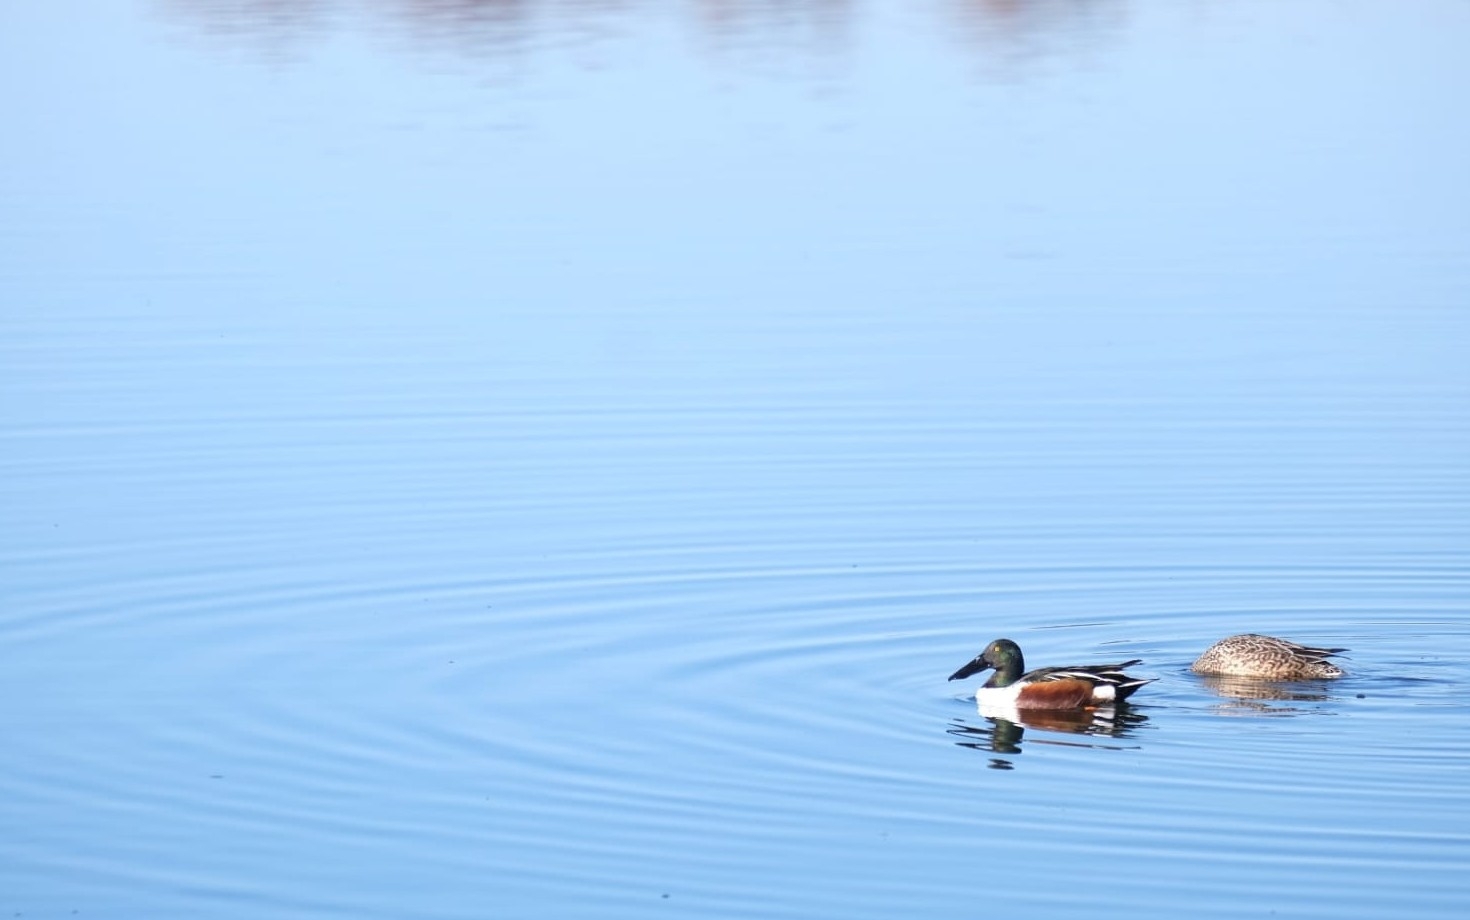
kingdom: Animalia
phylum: Chordata
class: Aves
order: Anseriformes
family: Anatidae
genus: Spatula
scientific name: Spatula clypeata
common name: Northern shoveler
